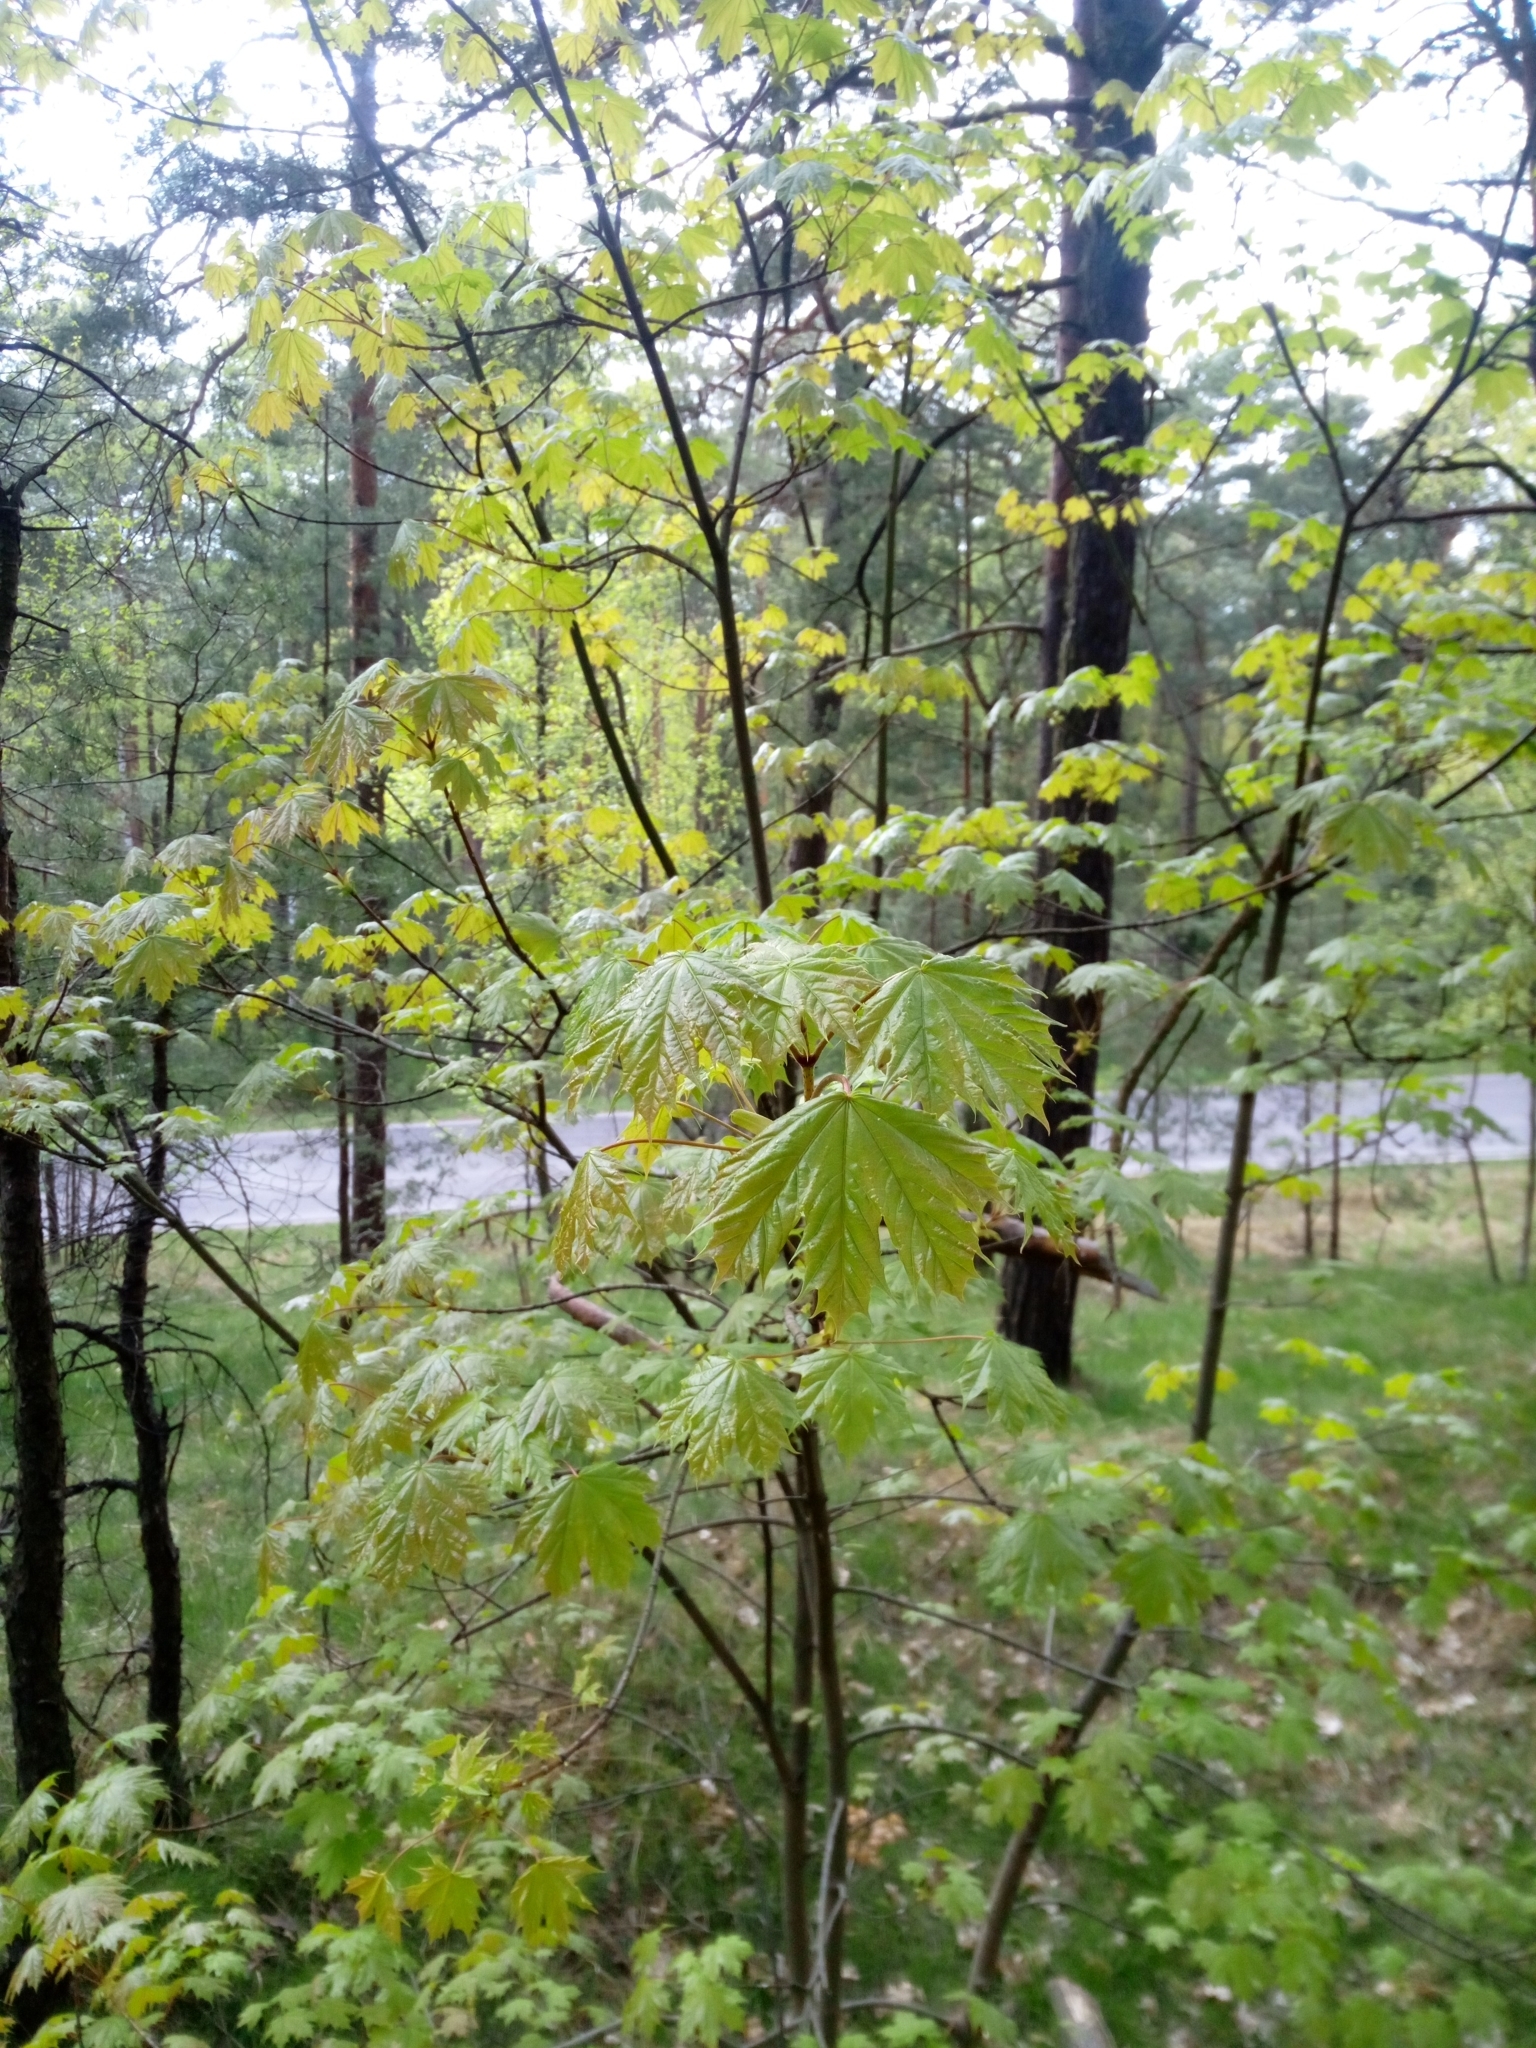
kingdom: Plantae
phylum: Tracheophyta
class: Magnoliopsida
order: Sapindales
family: Sapindaceae
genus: Acer
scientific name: Acer platanoides
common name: Norway maple
